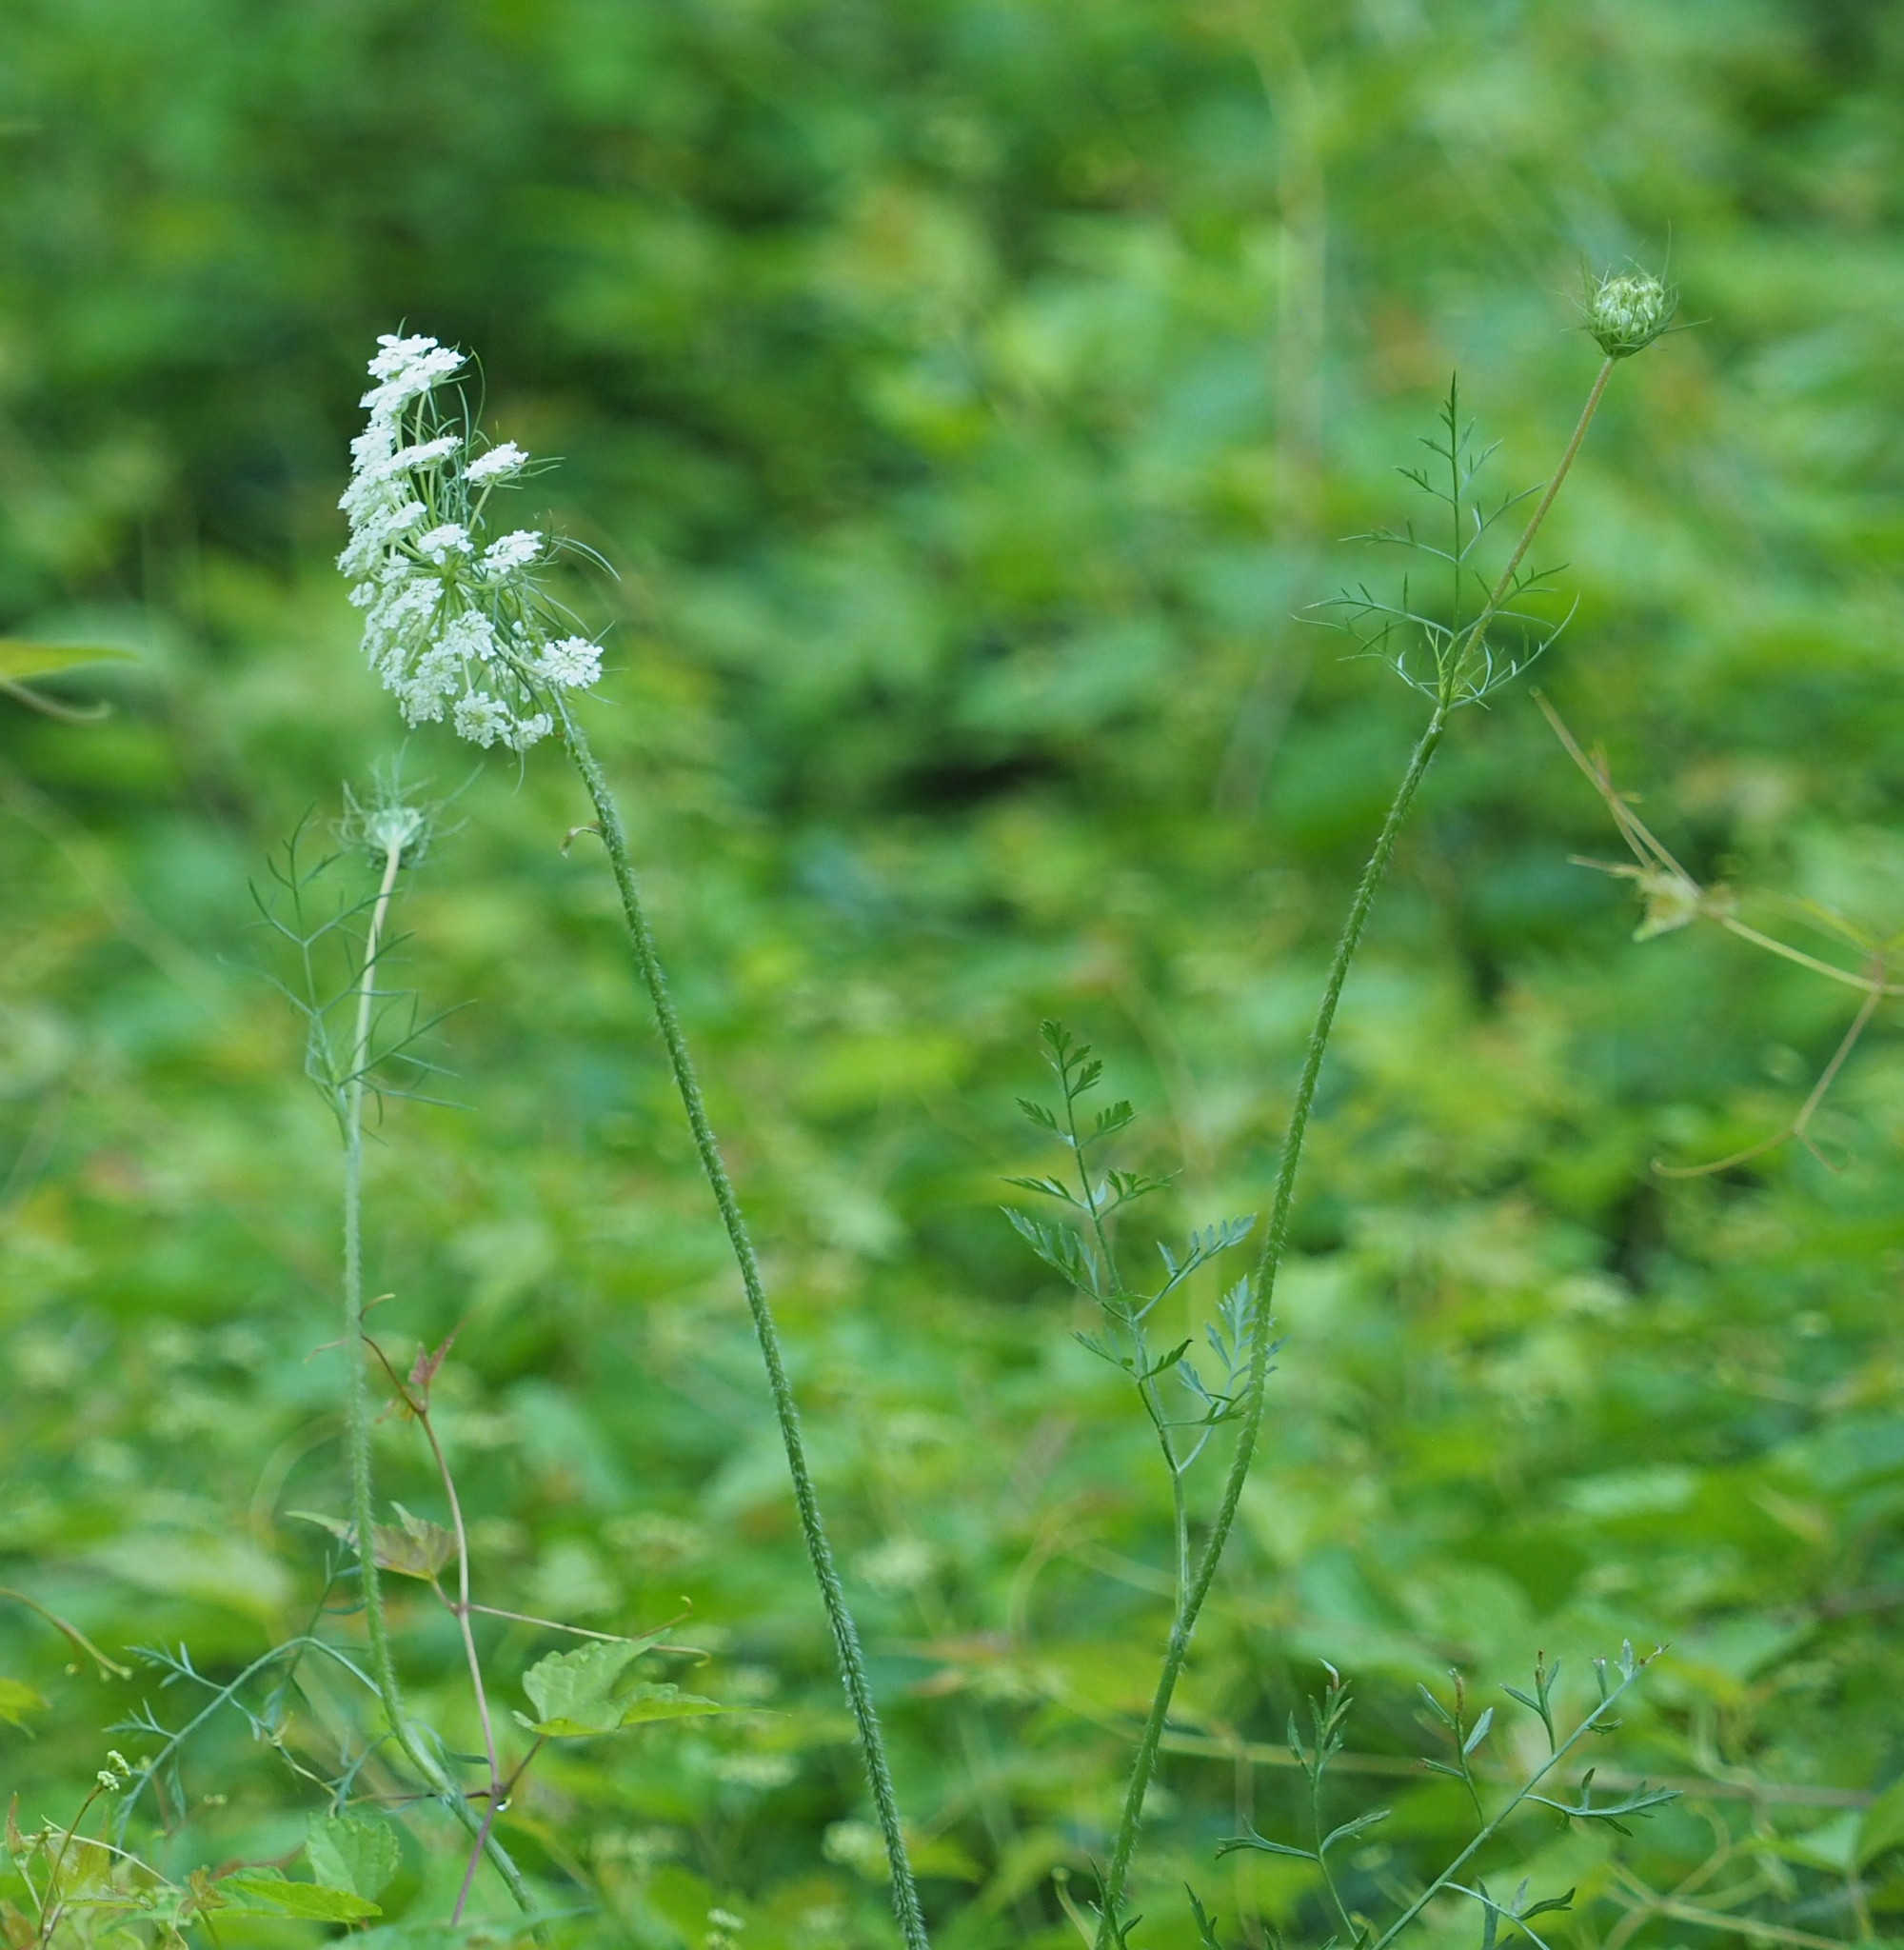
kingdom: Plantae
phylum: Tracheophyta
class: Magnoliopsida
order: Apiales
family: Apiaceae
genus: Daucus
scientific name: Daucus carota
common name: Wild carrot
